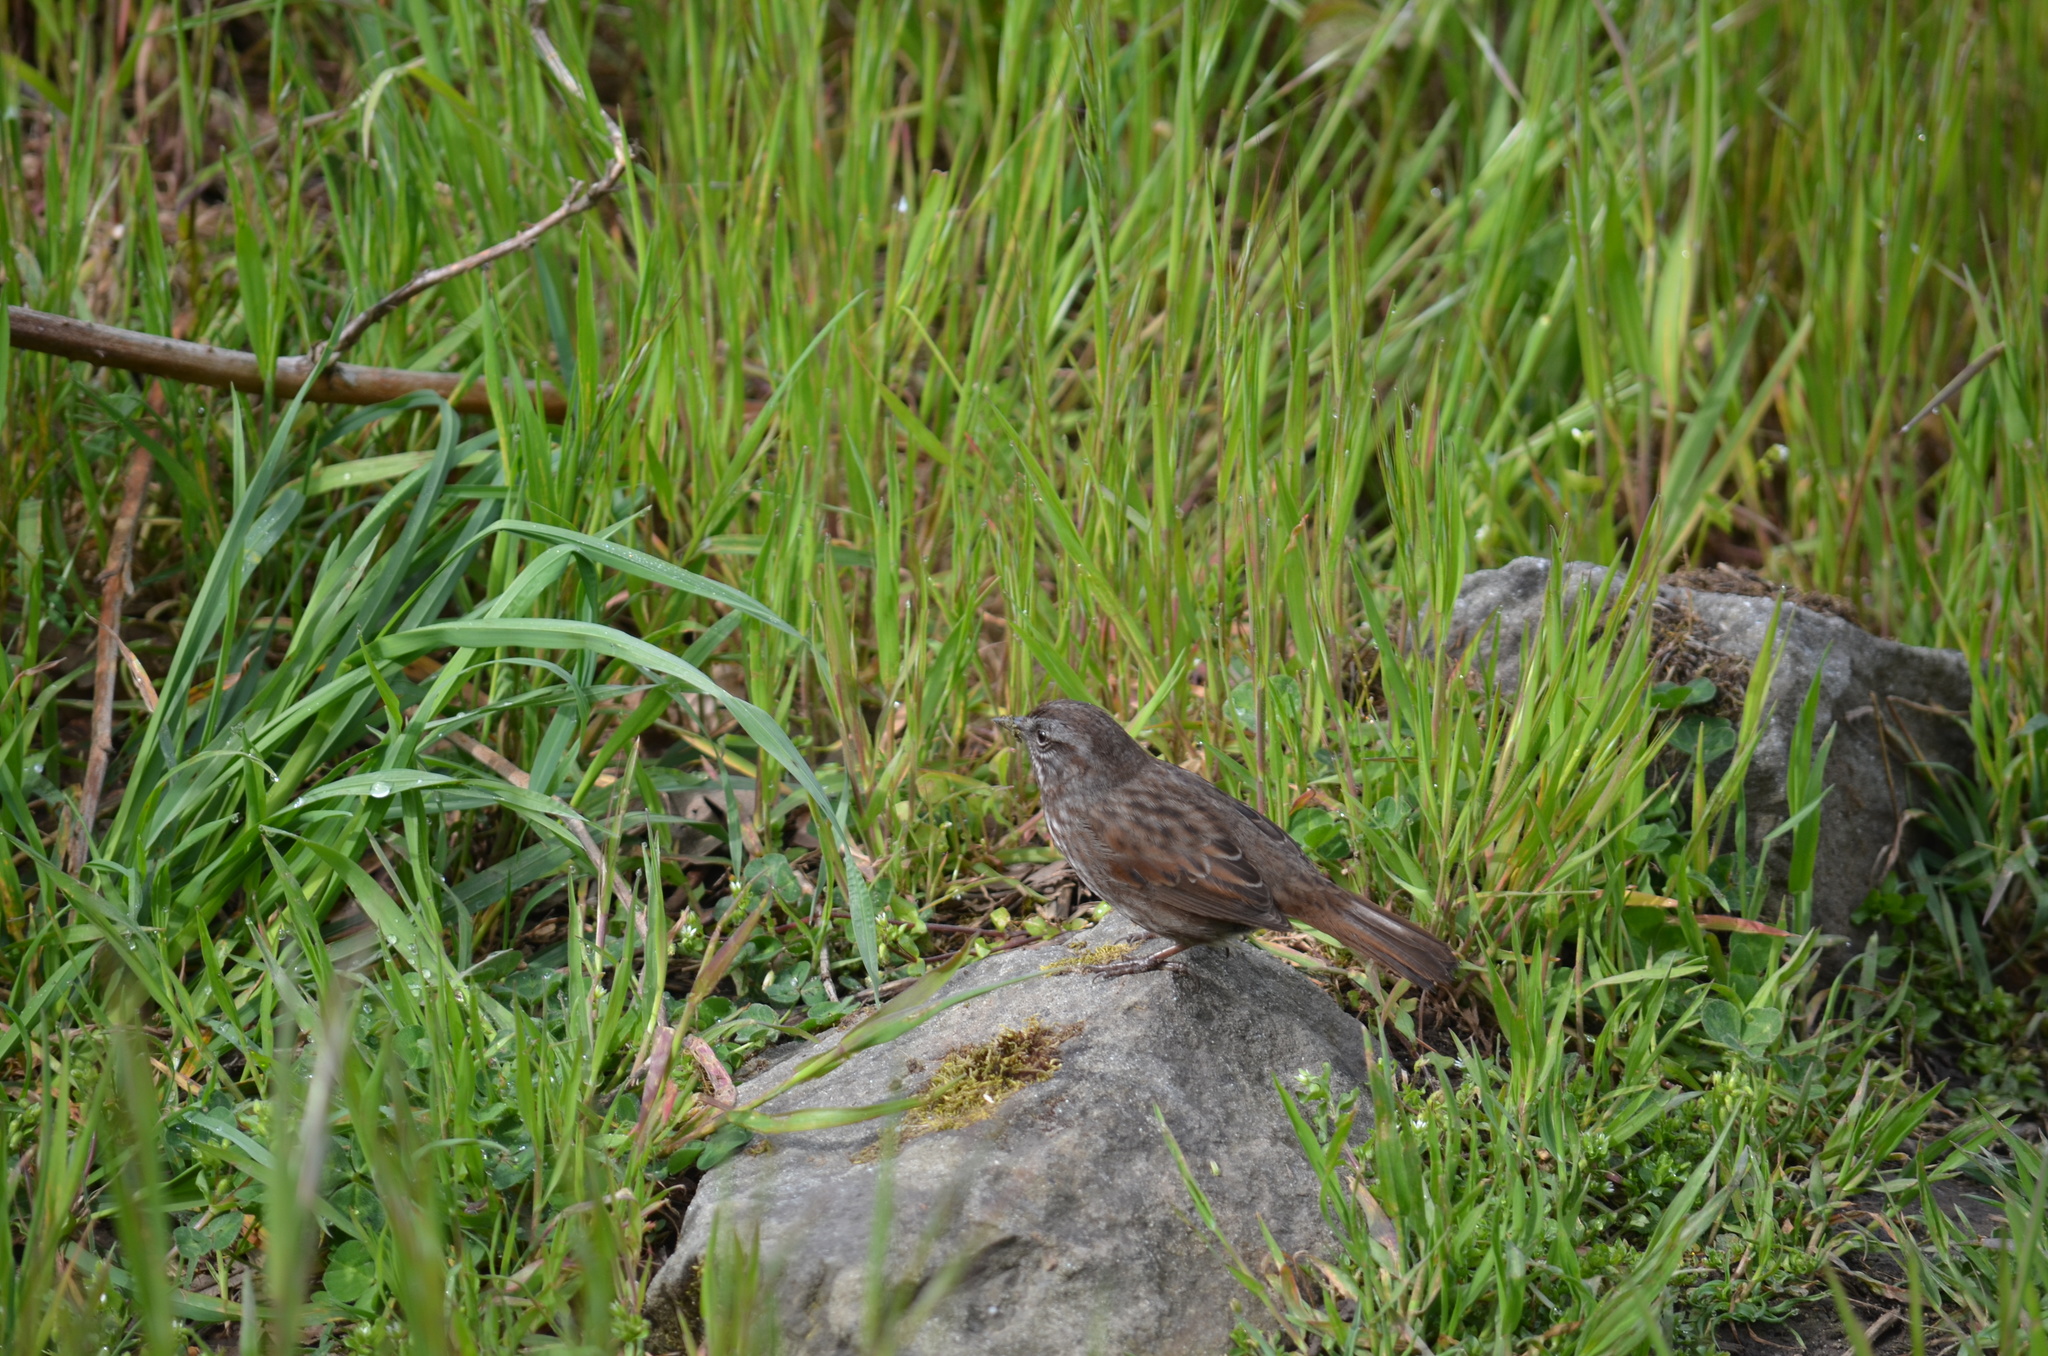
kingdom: Animalia
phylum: Chordata
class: Aves
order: Passeriformes
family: Passerellidae
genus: Melospiza
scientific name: Melospiza melodia
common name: Song sparrow
